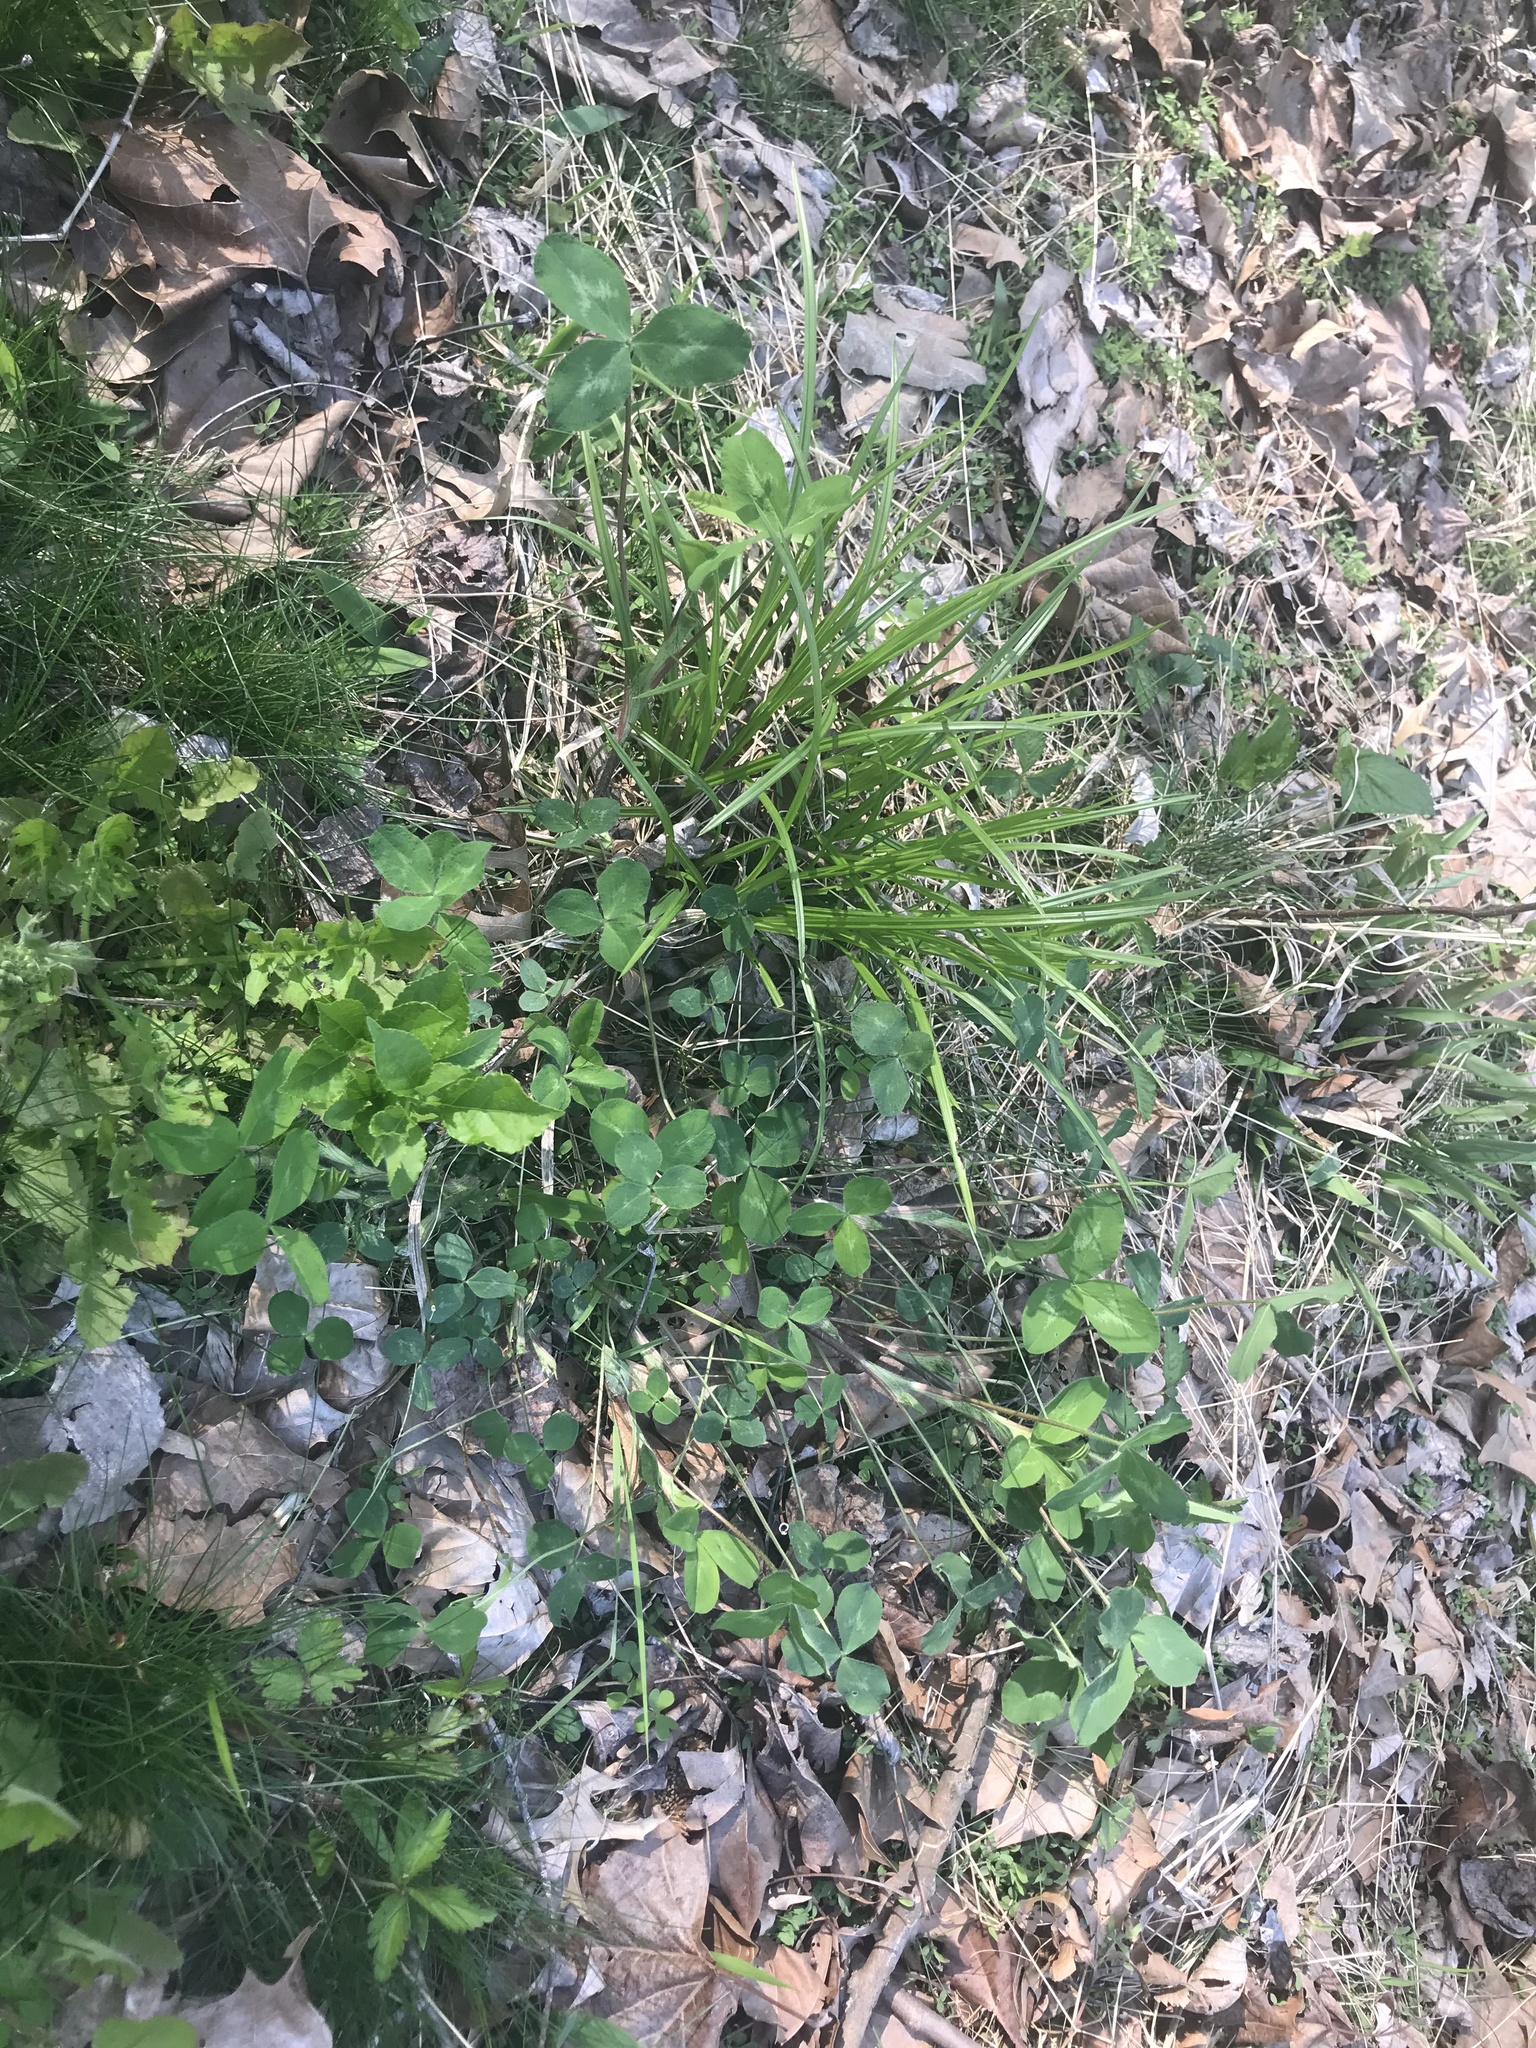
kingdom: Plantae
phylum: Tracheophyta
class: Magnoliopsida
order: Fabales
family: Fabaceae
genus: Trifolium
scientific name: Trifolium pratense
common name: Red clover
